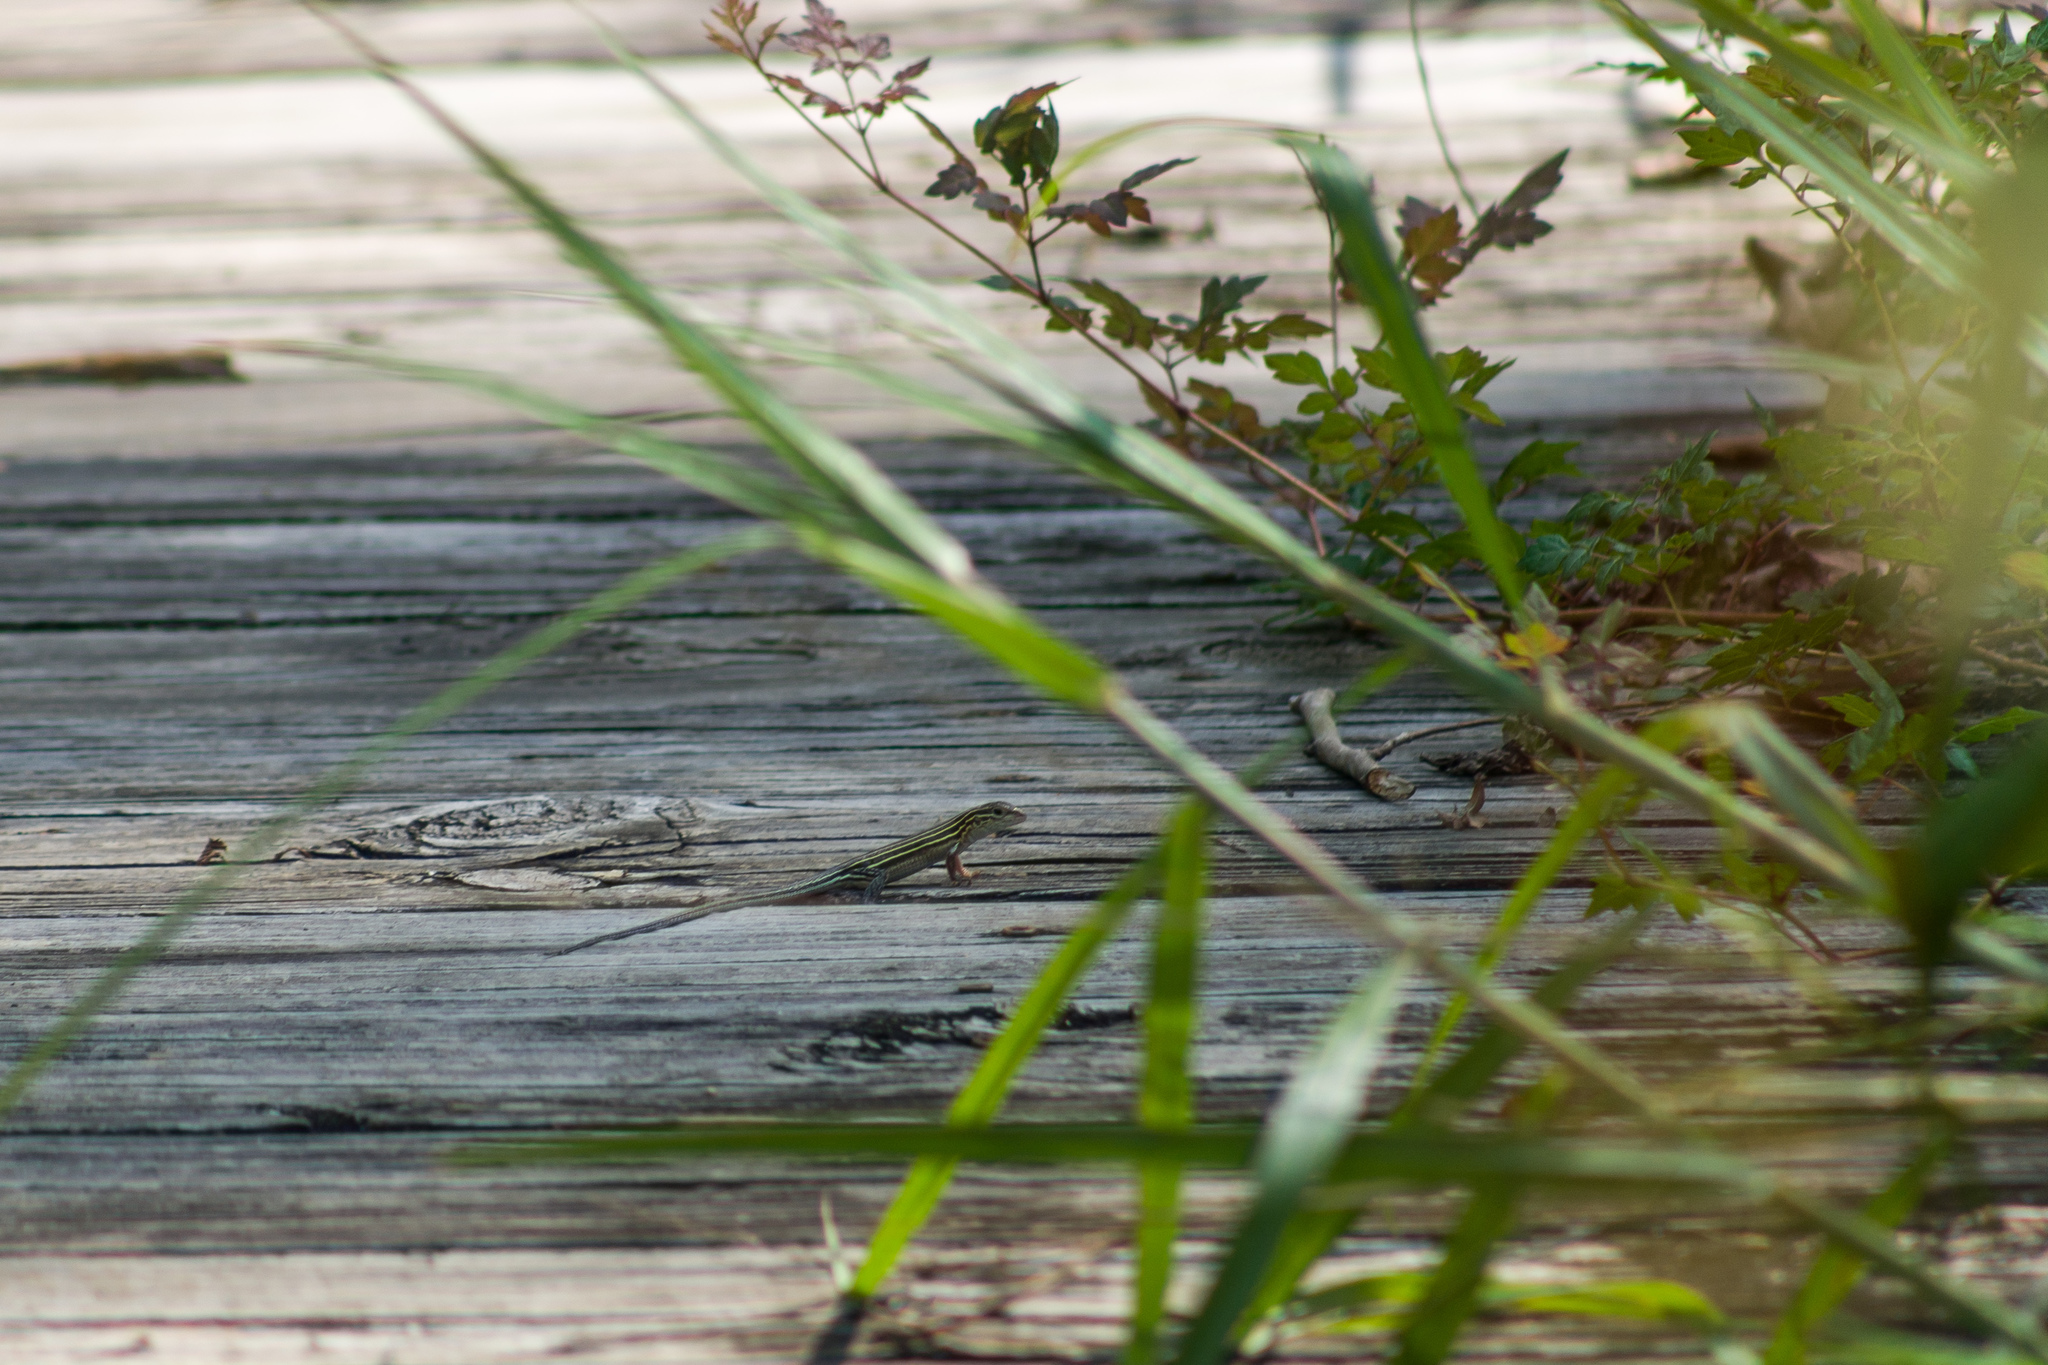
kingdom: Animalia
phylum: Chordata
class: Squamata
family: Teiidae
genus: Aspidoscelis
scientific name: Aspidoscelis sexlineatus
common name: Six-lined racerunner
